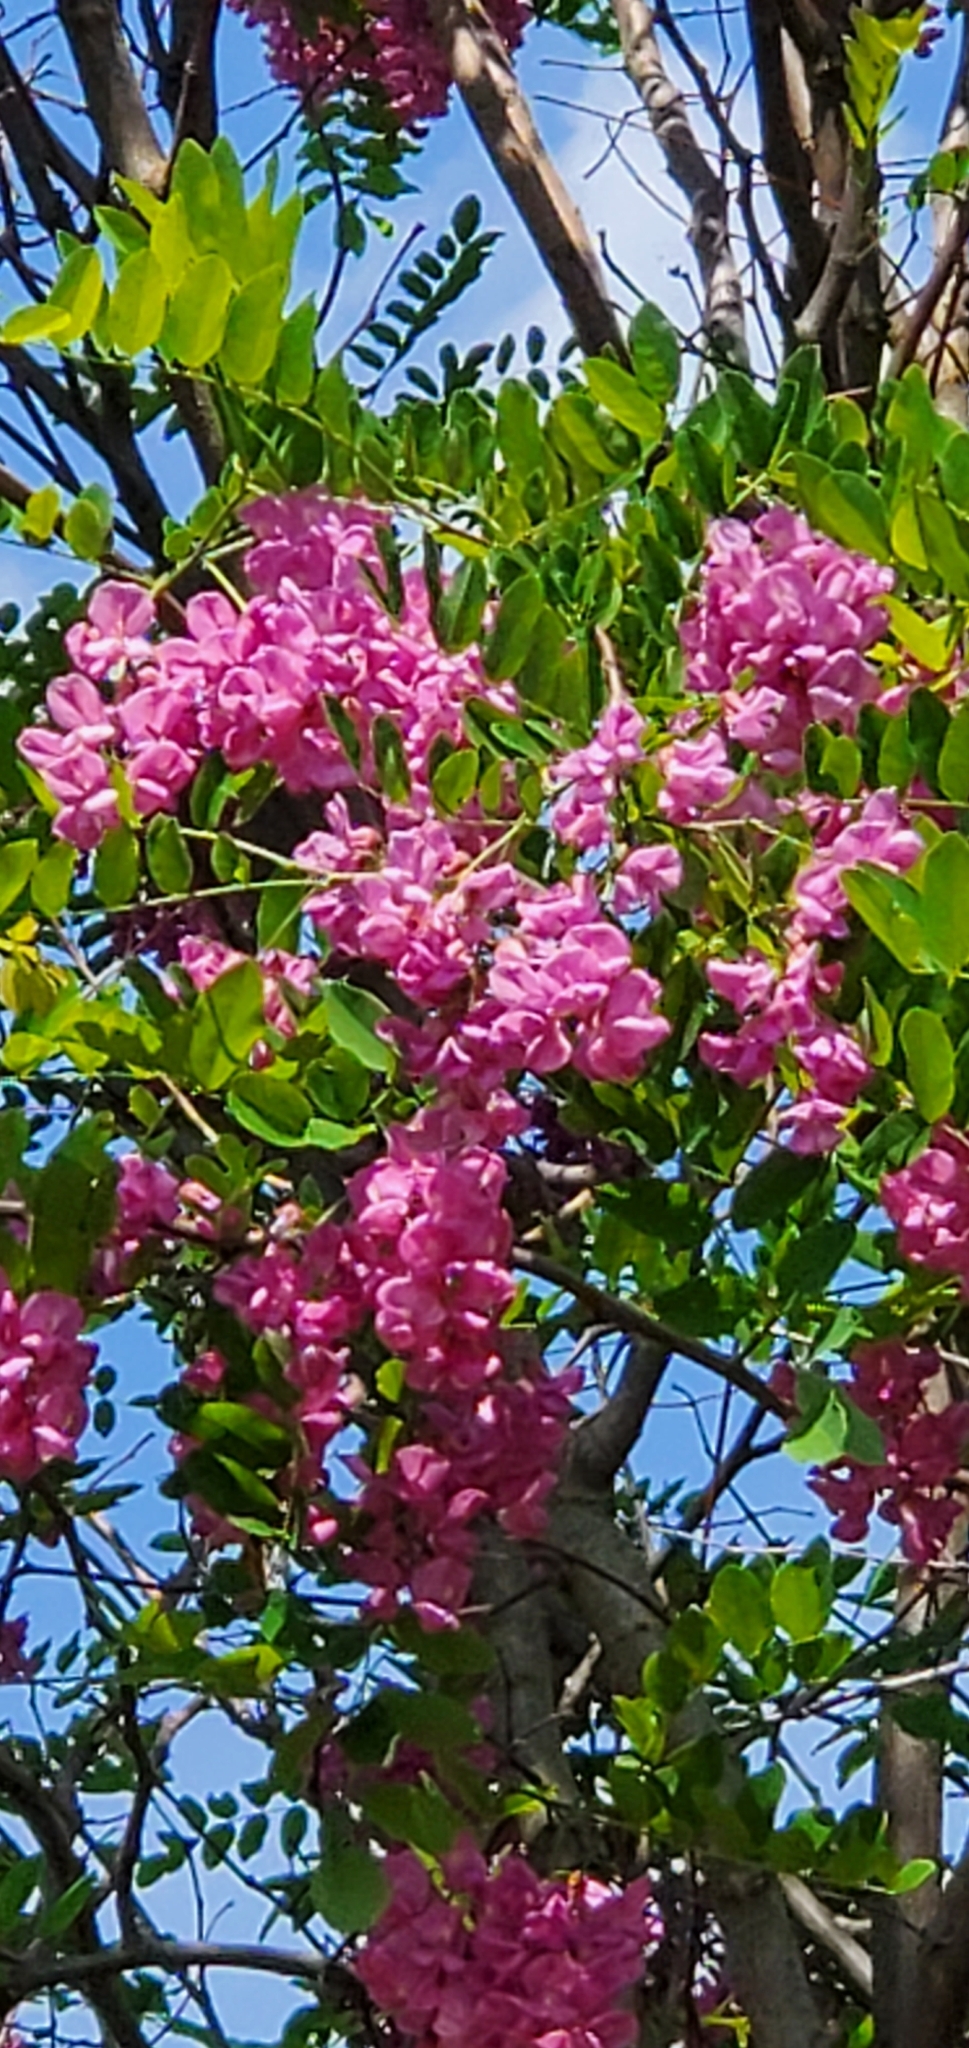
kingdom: Plantae
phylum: Tracheophyta
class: Magnoliopsida
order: Fabales
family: Fabaceae
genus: Robinia
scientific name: Robinia hispida
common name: Bristly locust
